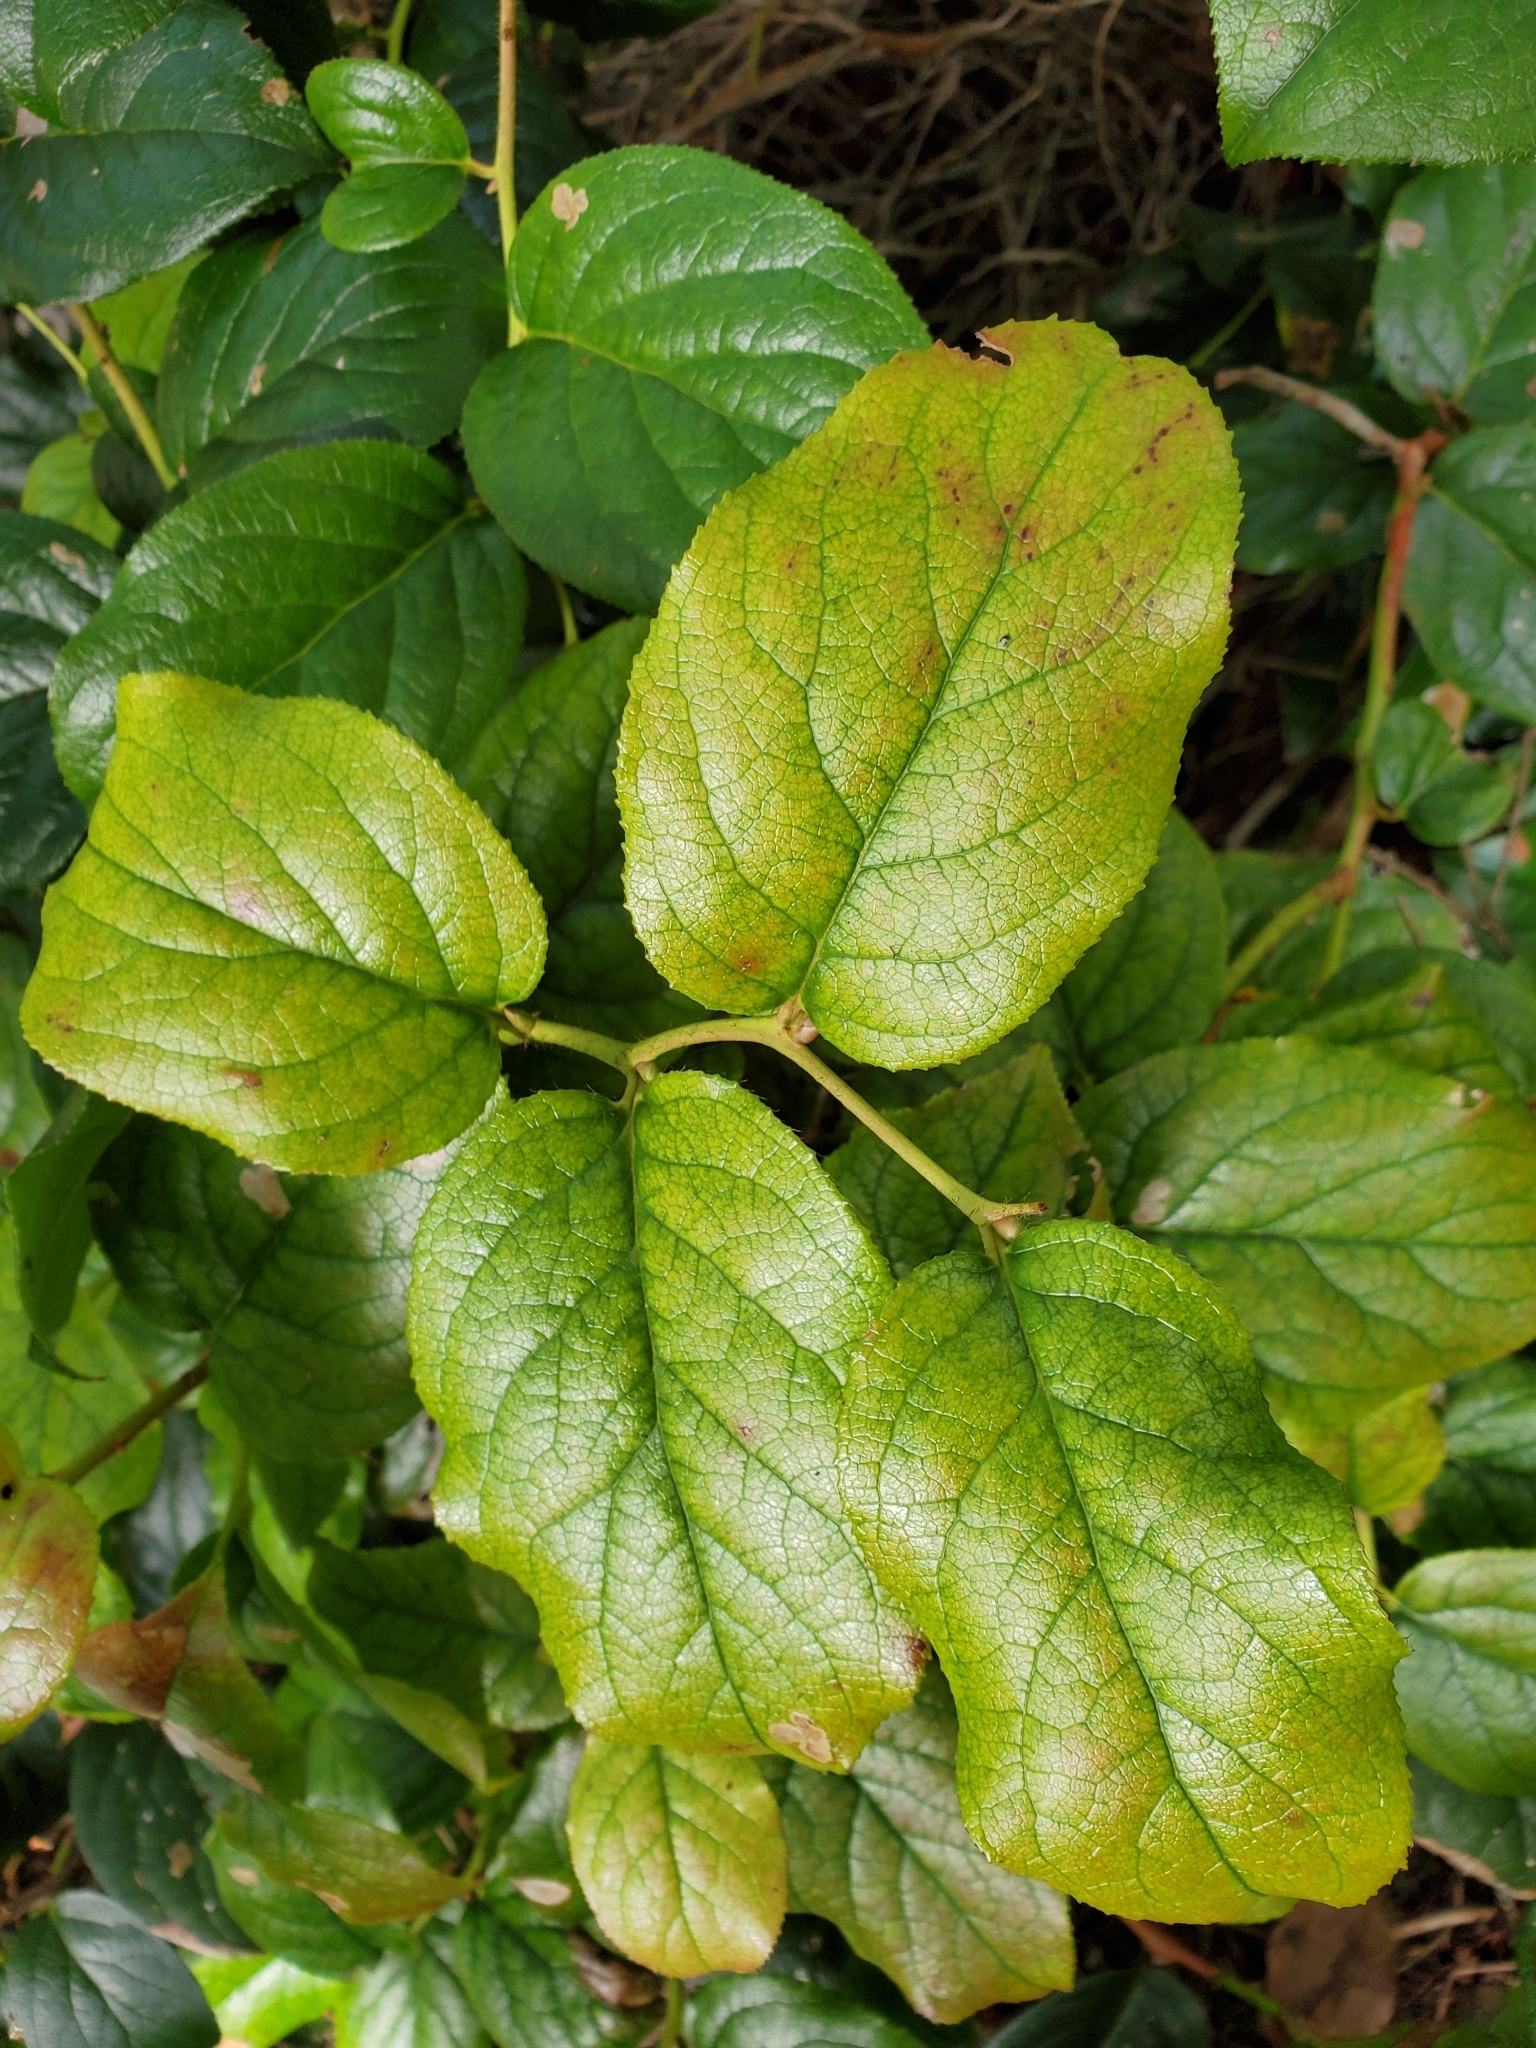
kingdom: Plantae
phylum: Tracheophyta
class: Magnoliopsida
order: Ericales
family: Ericaceae
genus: Gaultheria
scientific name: Gaultheria shallon
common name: Shallon
